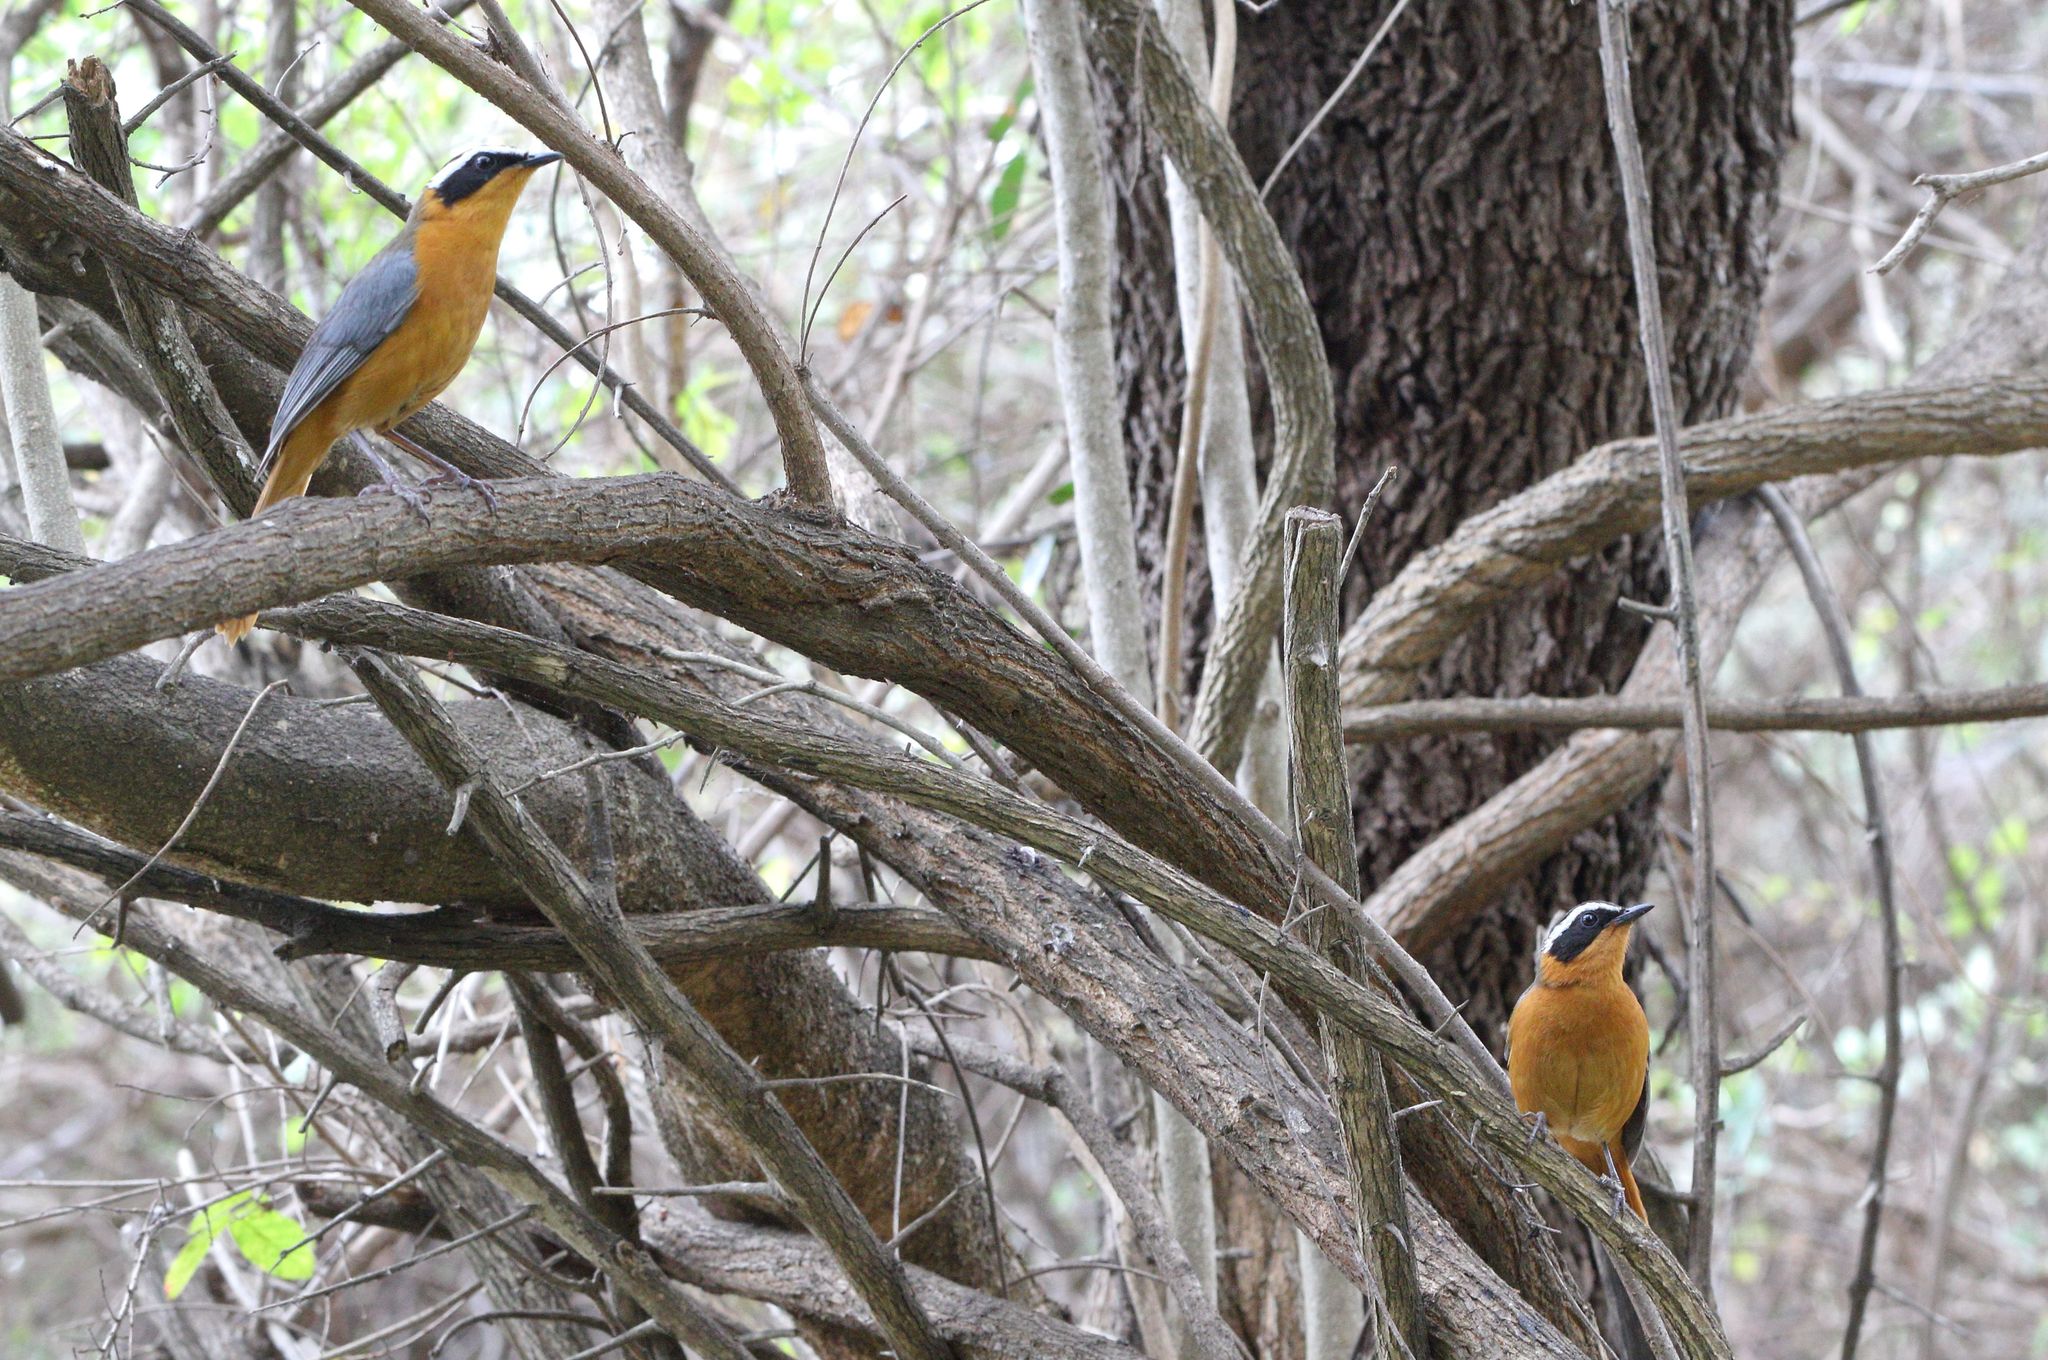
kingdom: Animalia
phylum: Chordata
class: Aves
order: Passeriformes
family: Muscicapidae
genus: Cossypha
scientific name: Cossypha heuglini
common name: White-browed robin-chat
